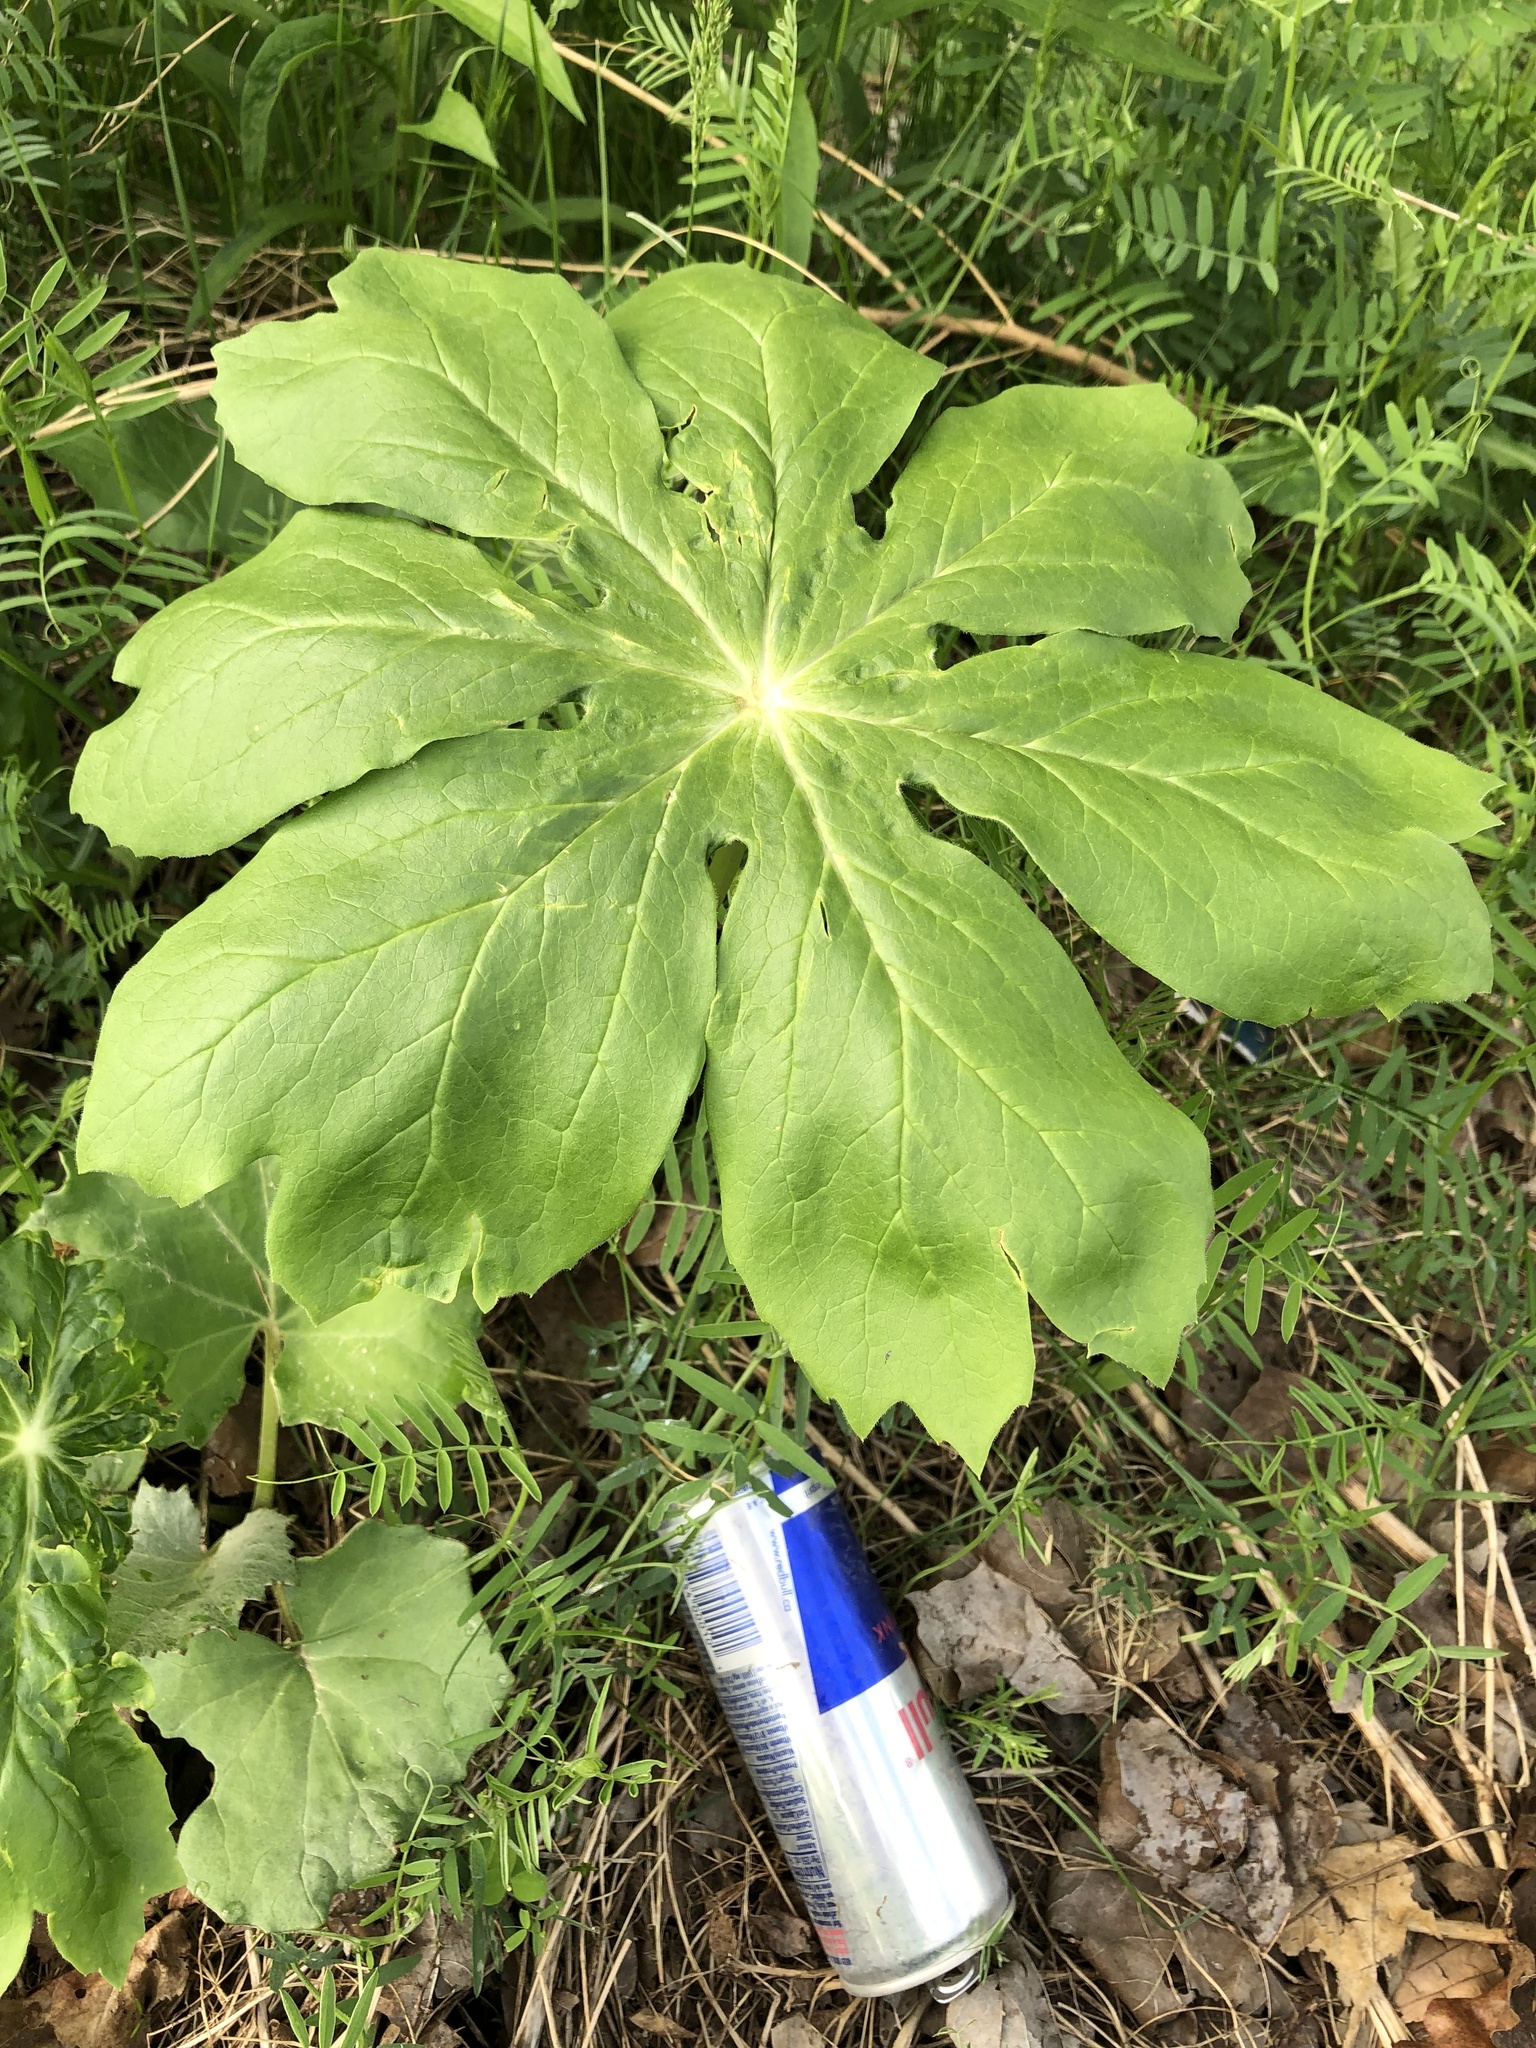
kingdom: Plantae
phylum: Tracheophyta
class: Magnoliopsida
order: Ranunculales
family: Berberidaceae
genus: Podophyllum
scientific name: Podophyllum peltatum
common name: Wild mandrake
